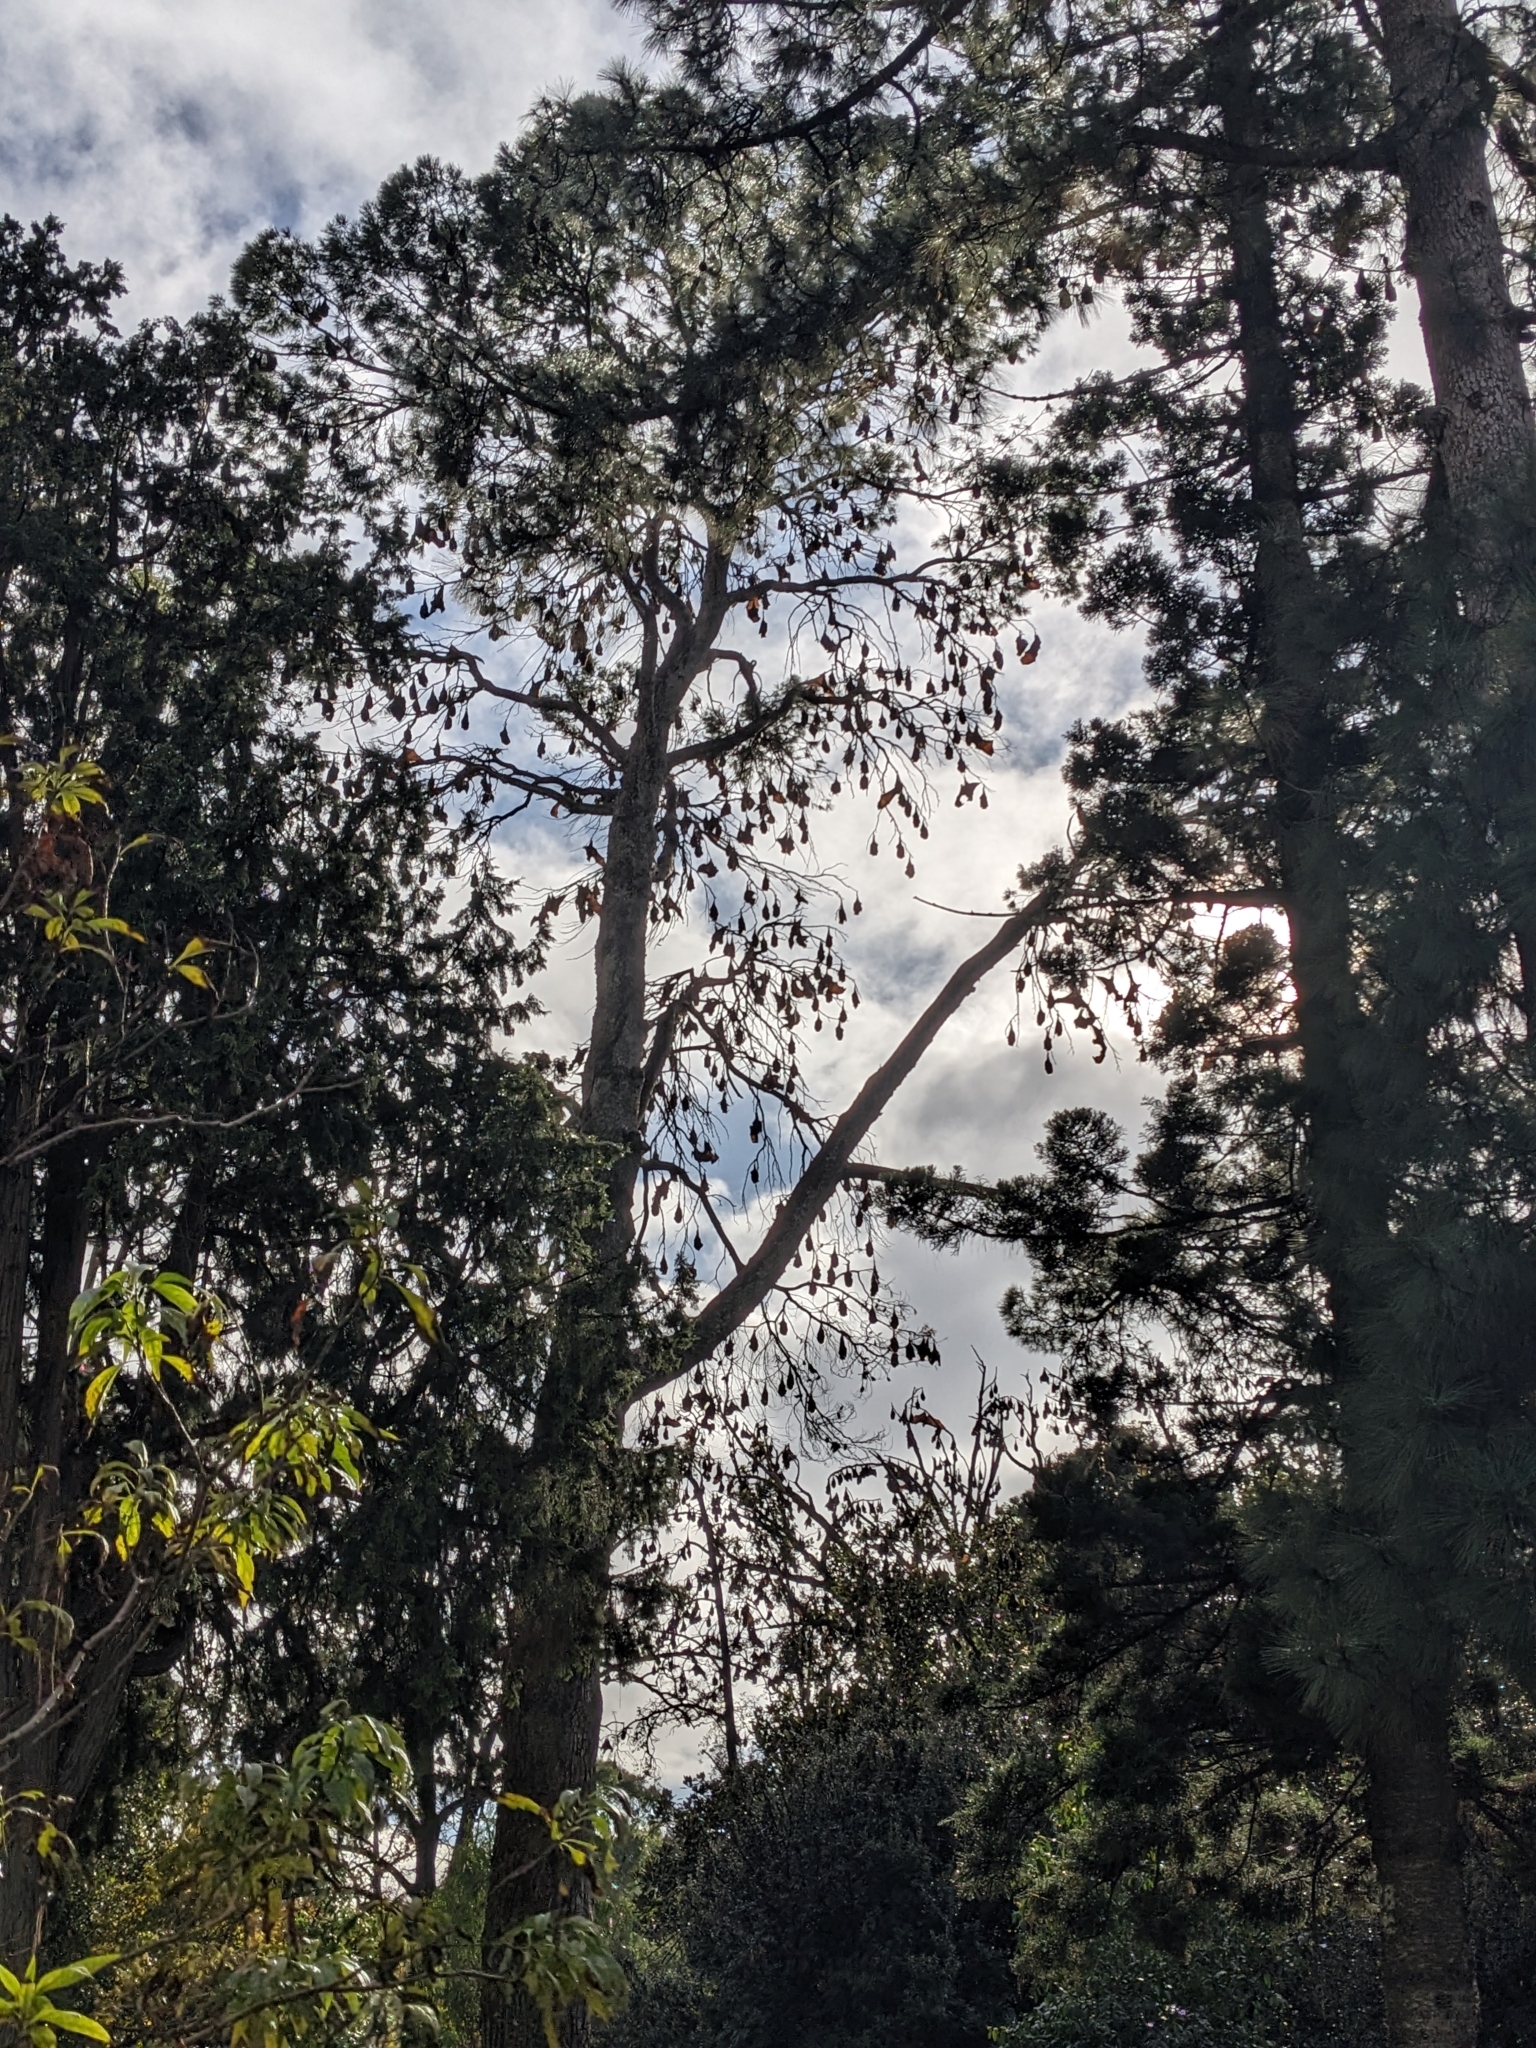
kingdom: Animalia
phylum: Chordata
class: Mammalia
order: Chiroptera
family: Pteropodidae
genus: Pteropus
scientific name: Pteropus poliocephalus
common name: Gray-headed flying fox
